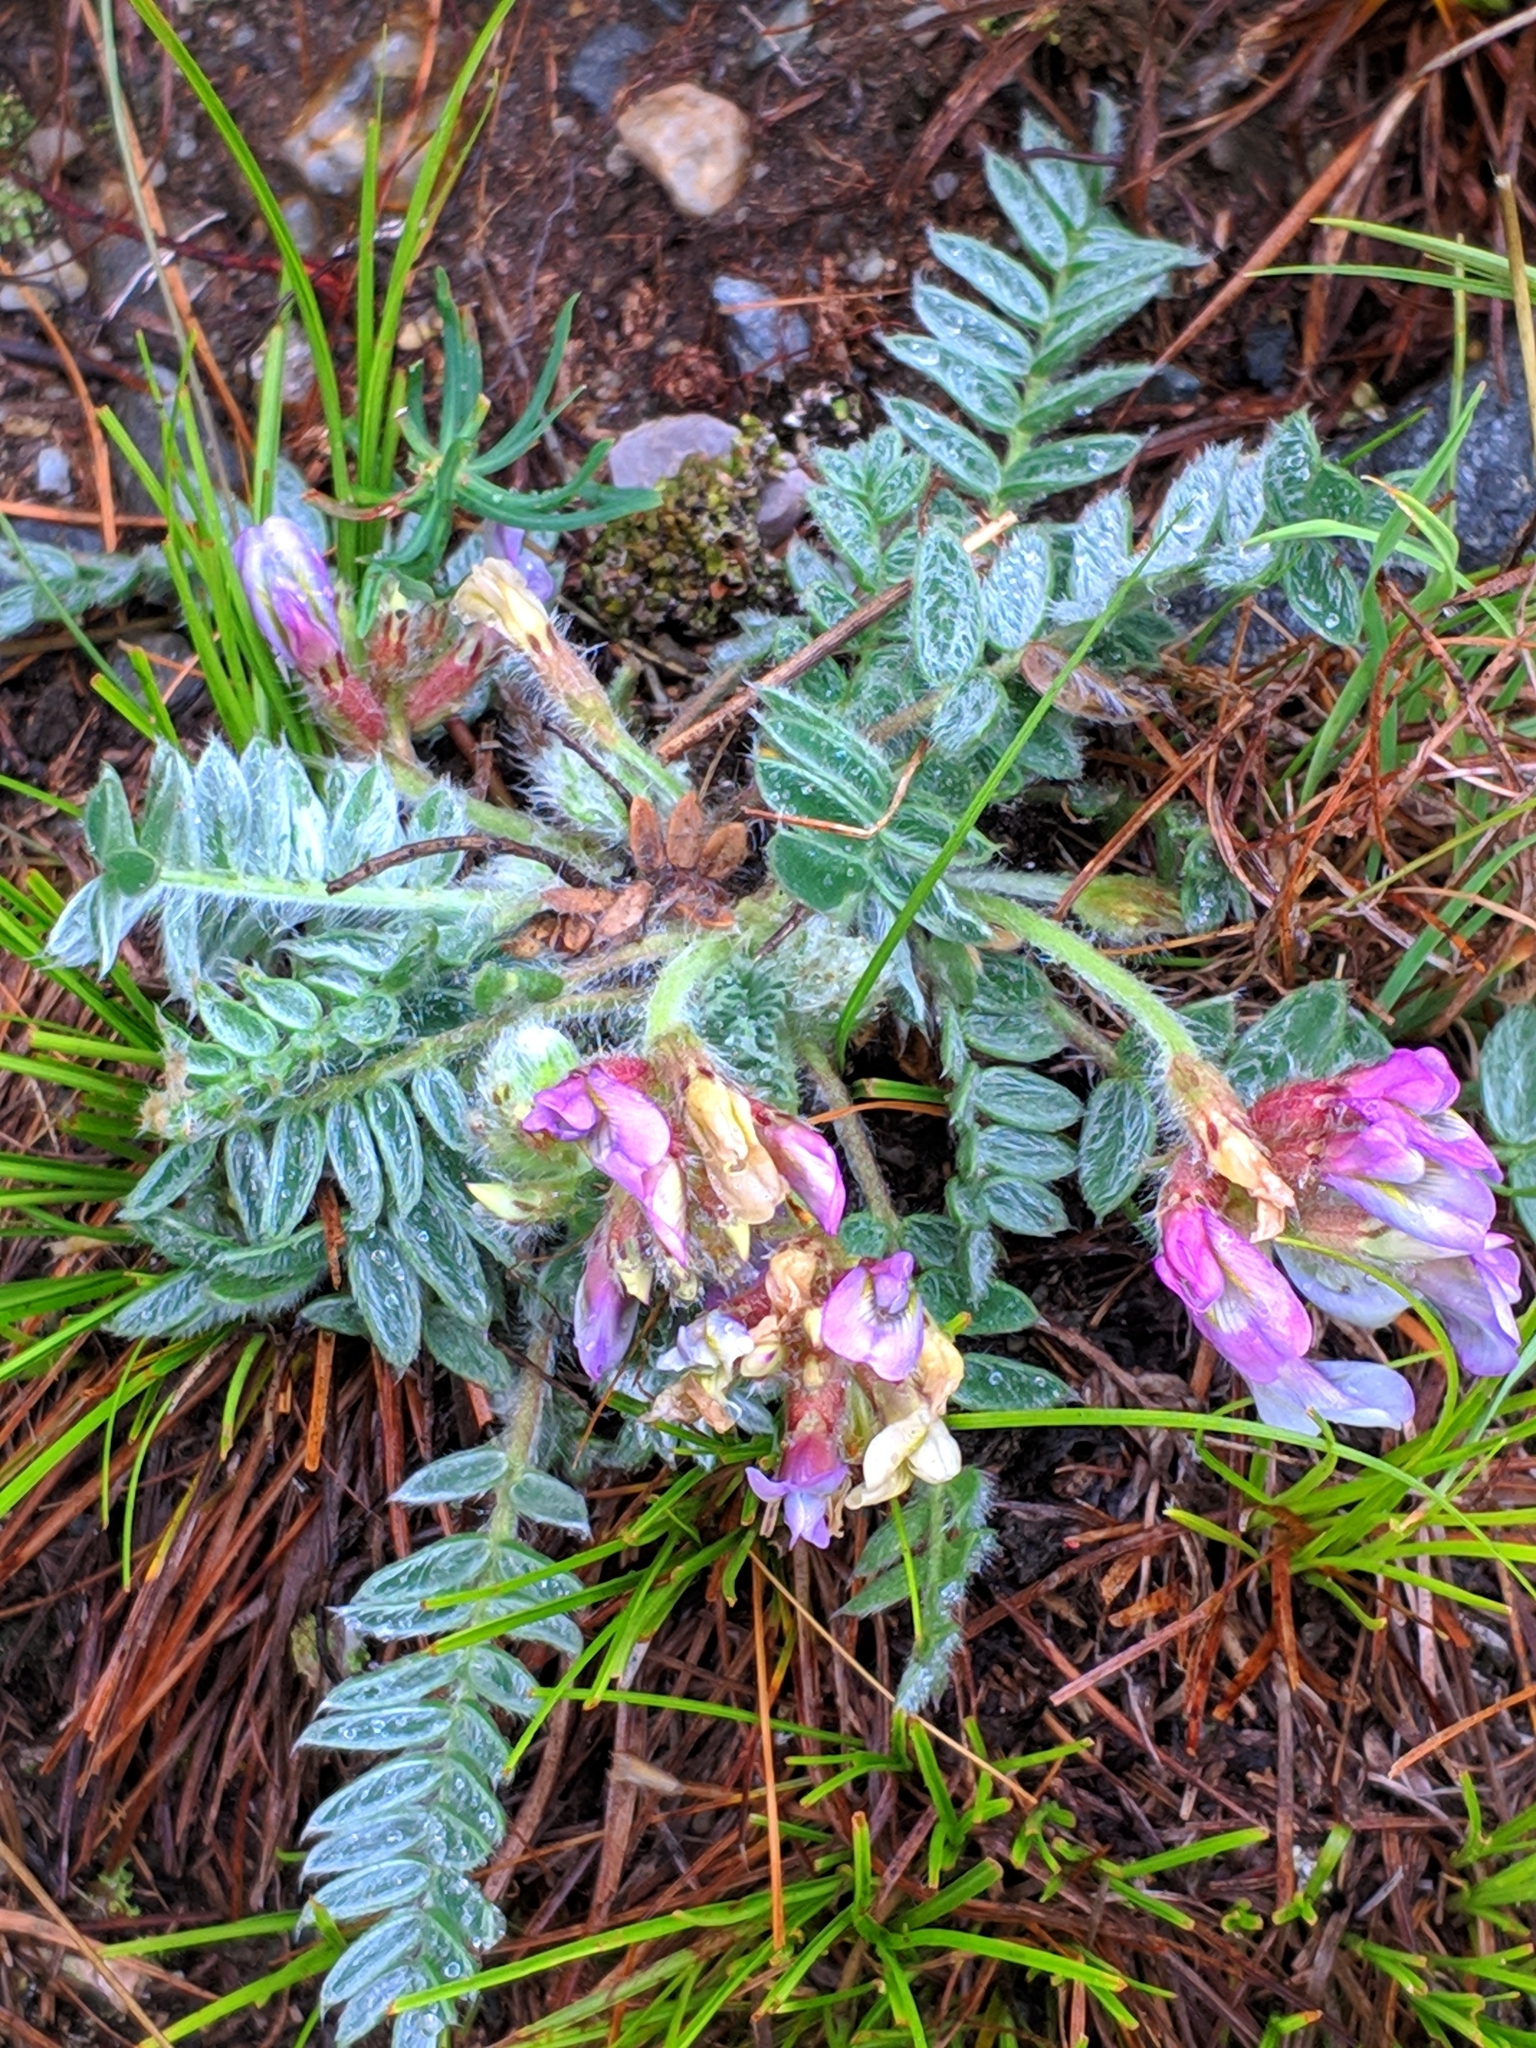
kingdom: Plantae
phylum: Tracheophyta
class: Magnoliopsida
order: Fabales
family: Fabaceae
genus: Oxytropis
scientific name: Oxytropis halleri
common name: Purple oxytropis
